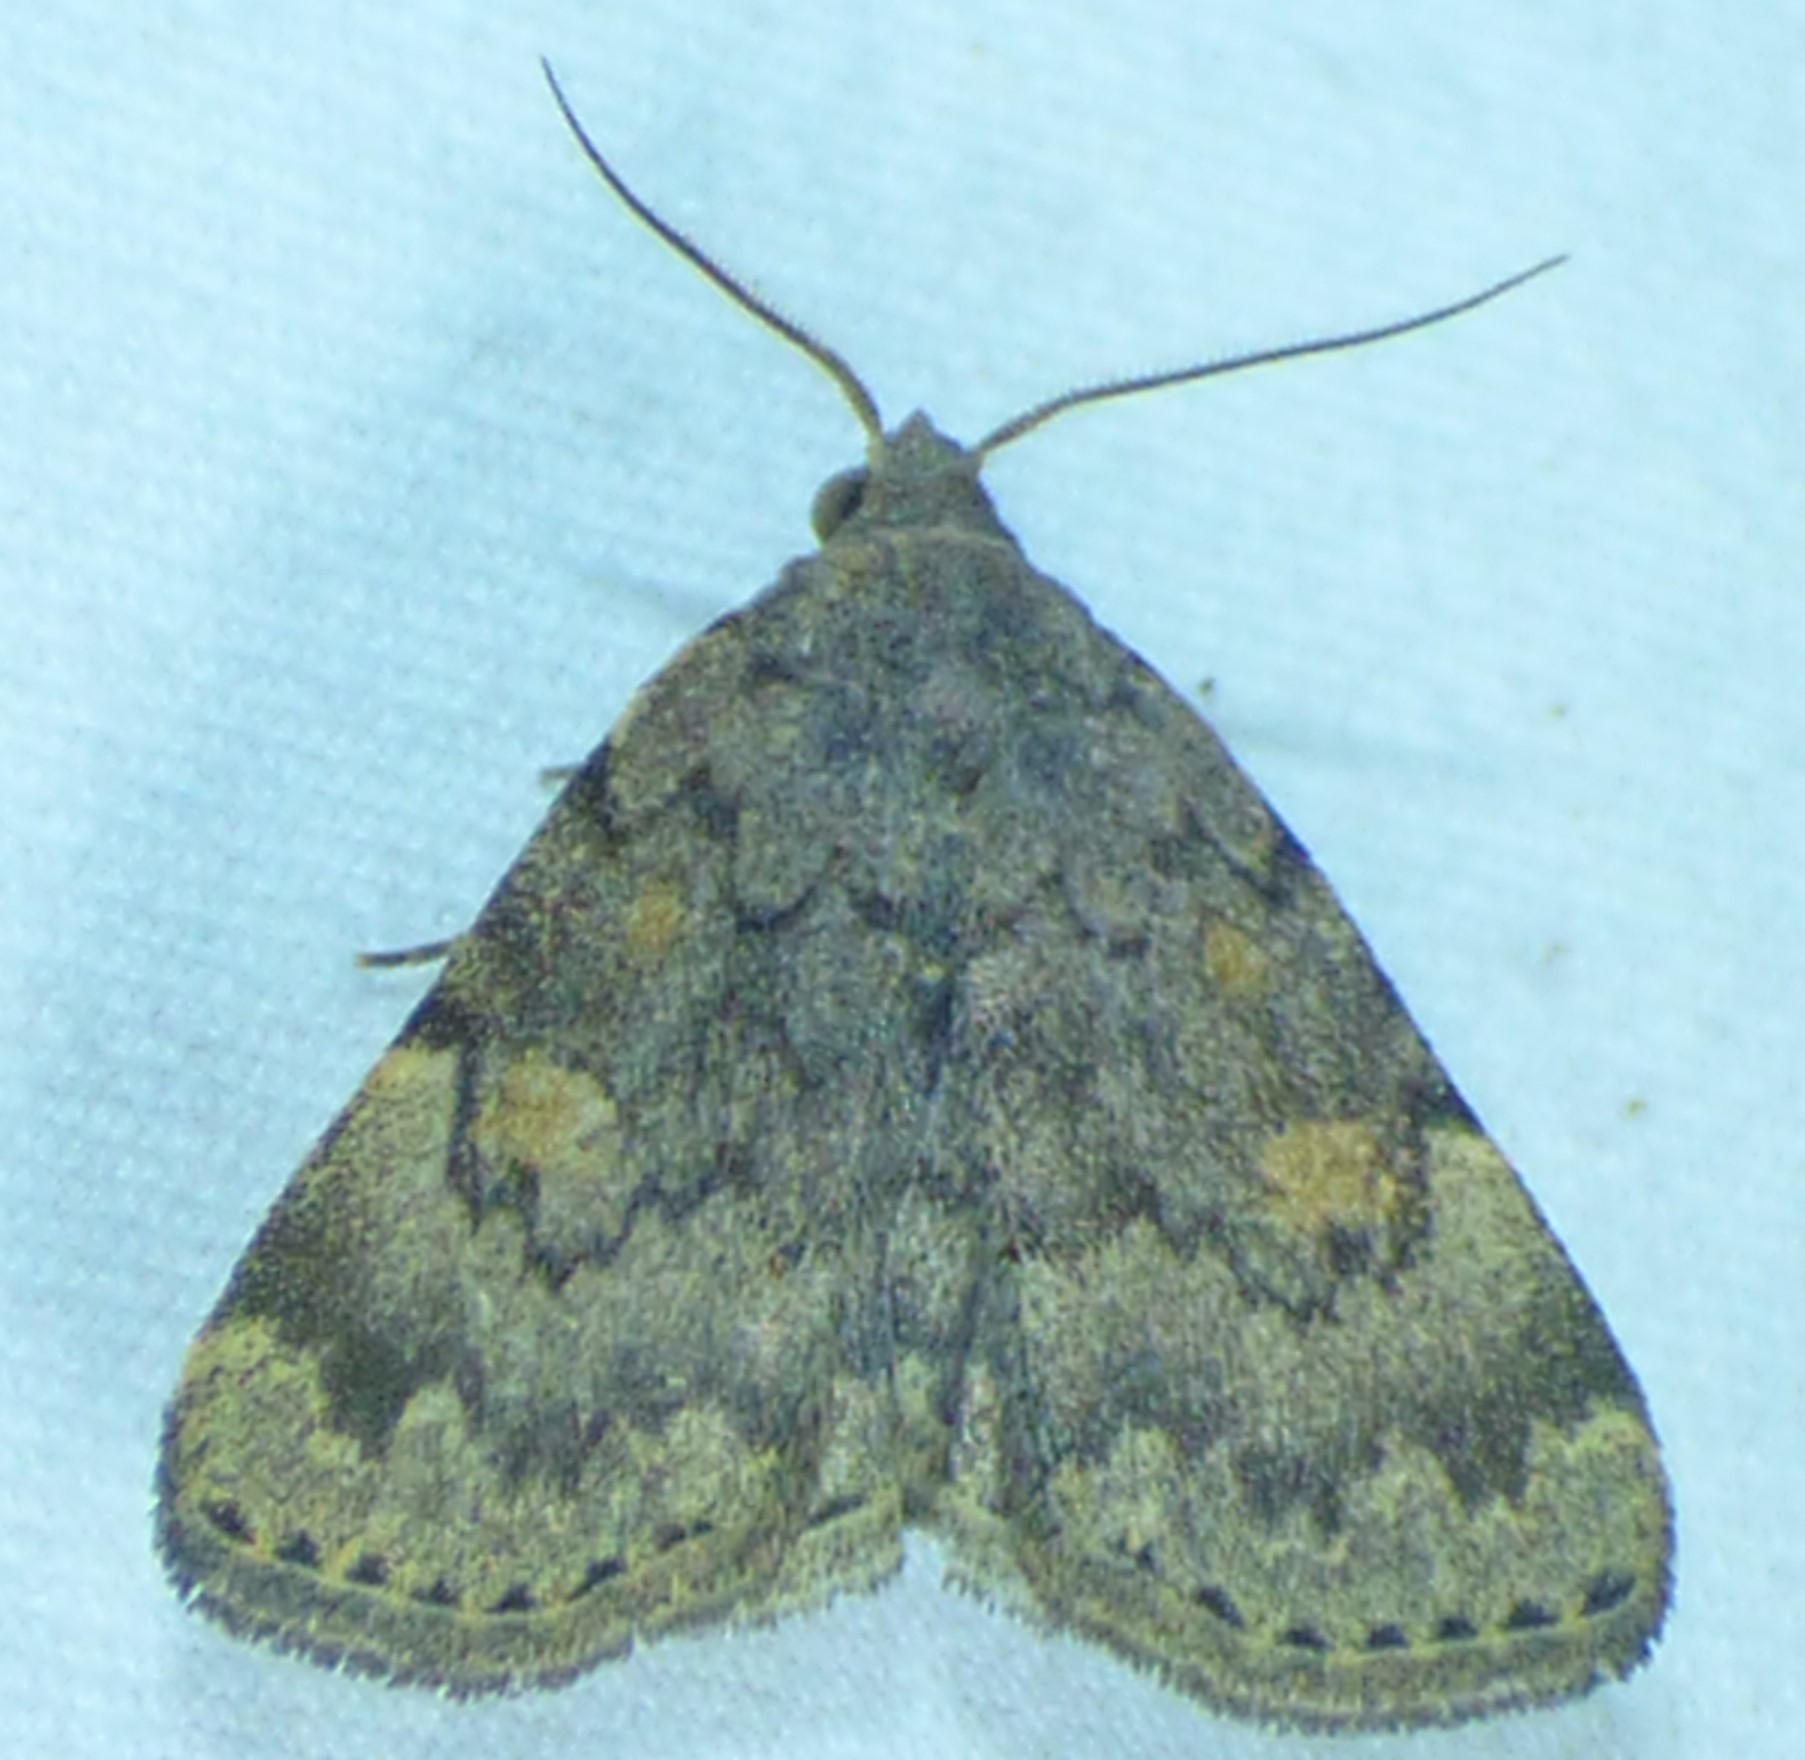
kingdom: Animalia
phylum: Arthropoda
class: Insecta
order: Lepidoptera
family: Erebidae
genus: Idia
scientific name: Idia aemula
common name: Common idia moth
